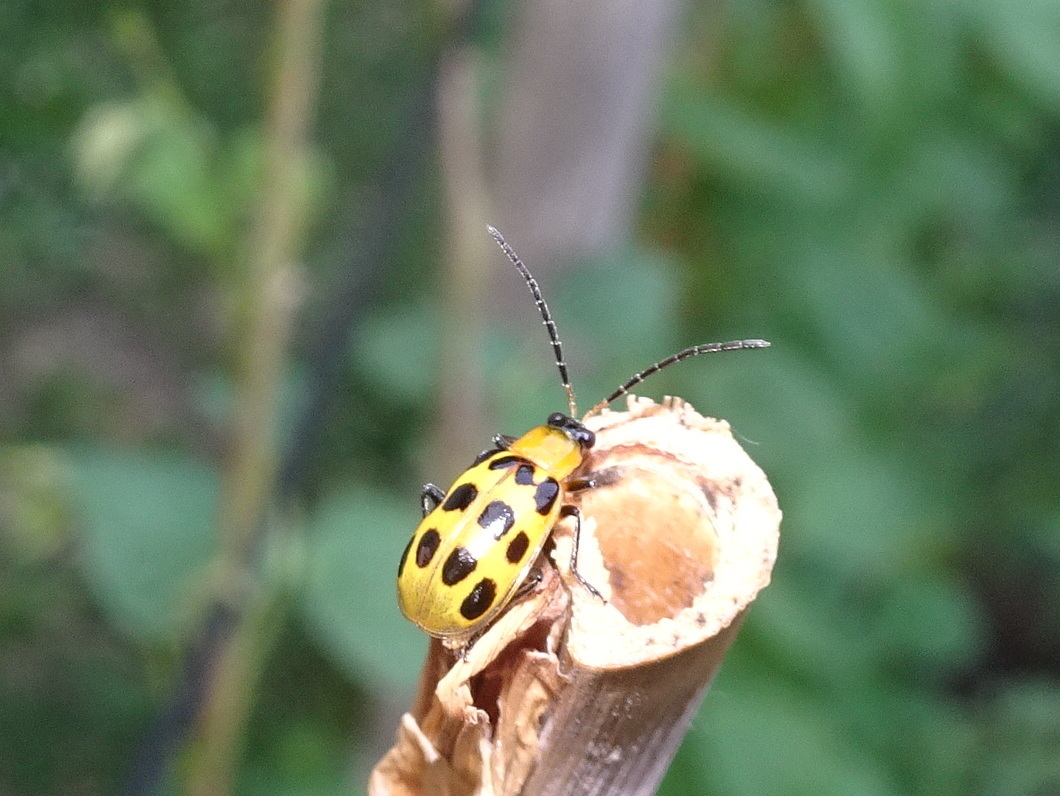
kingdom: Animalia
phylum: Arthropoda
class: Insecta
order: Coleoptera
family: Chrysomelidae
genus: Diabrotica
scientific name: Diabrotica undecimpunctata
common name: Spotted cucumber beetle
